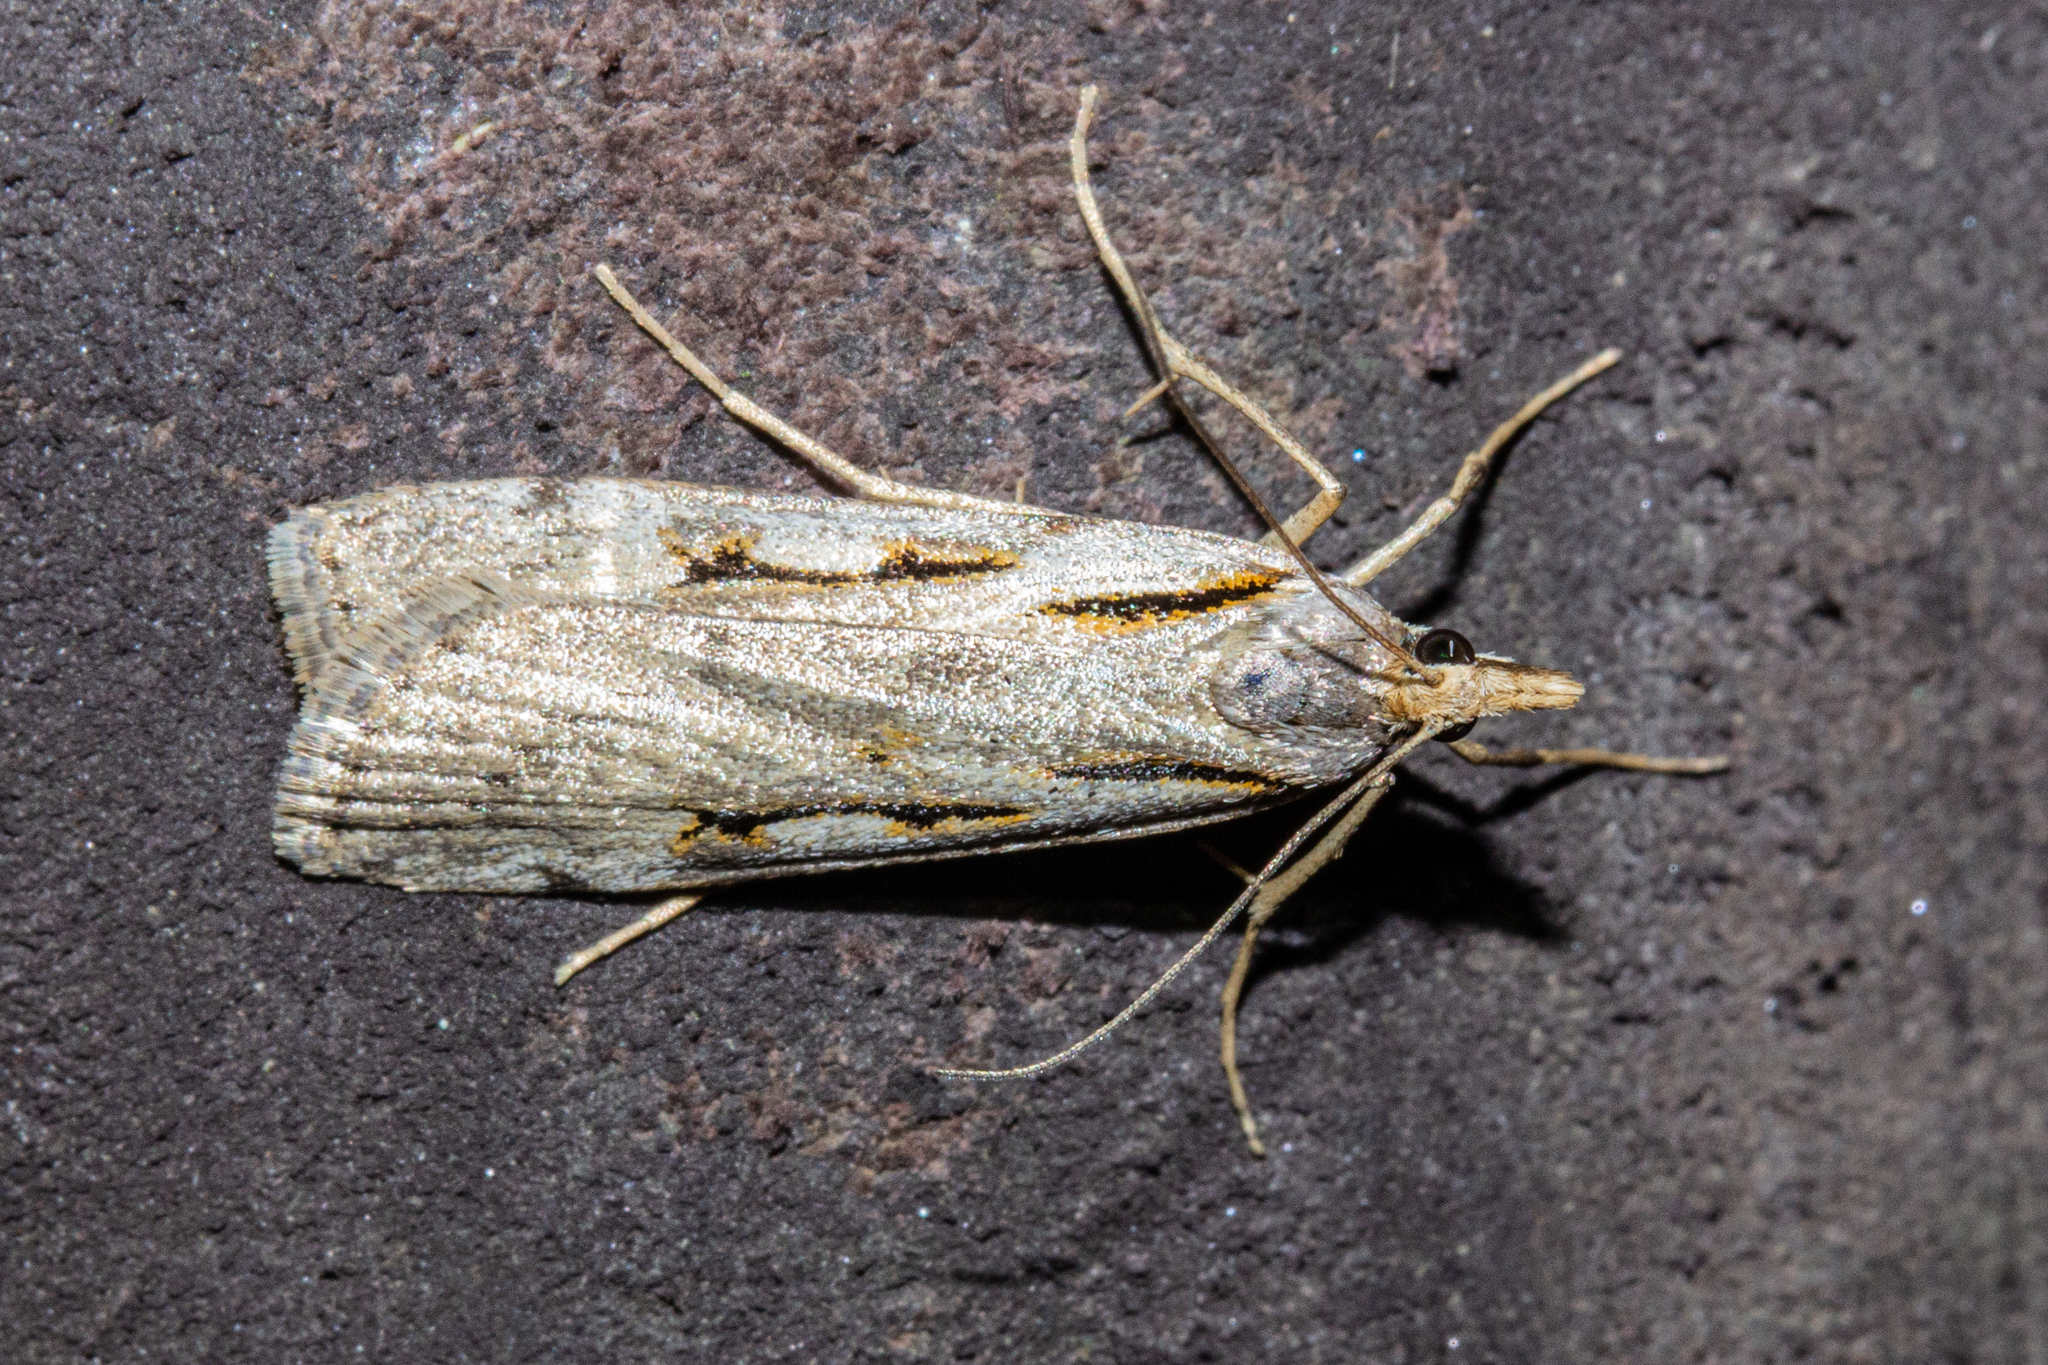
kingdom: Animalia
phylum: Arthropoda
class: Insecta
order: Lepidoptera
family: Crambidae
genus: Scoparia
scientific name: Scoparia rotuellus
